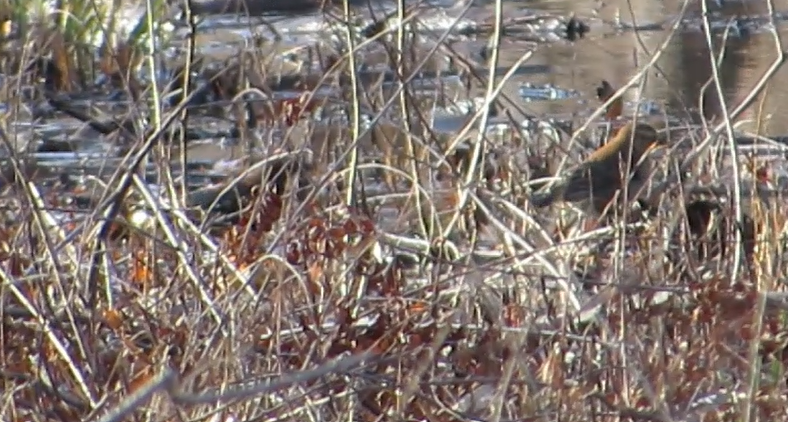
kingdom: Animalia
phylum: Chordata
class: Aves
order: Passeriformes
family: Icteridae
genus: Euphagus
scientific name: Euphagus carolinus
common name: Rusty blackbird
